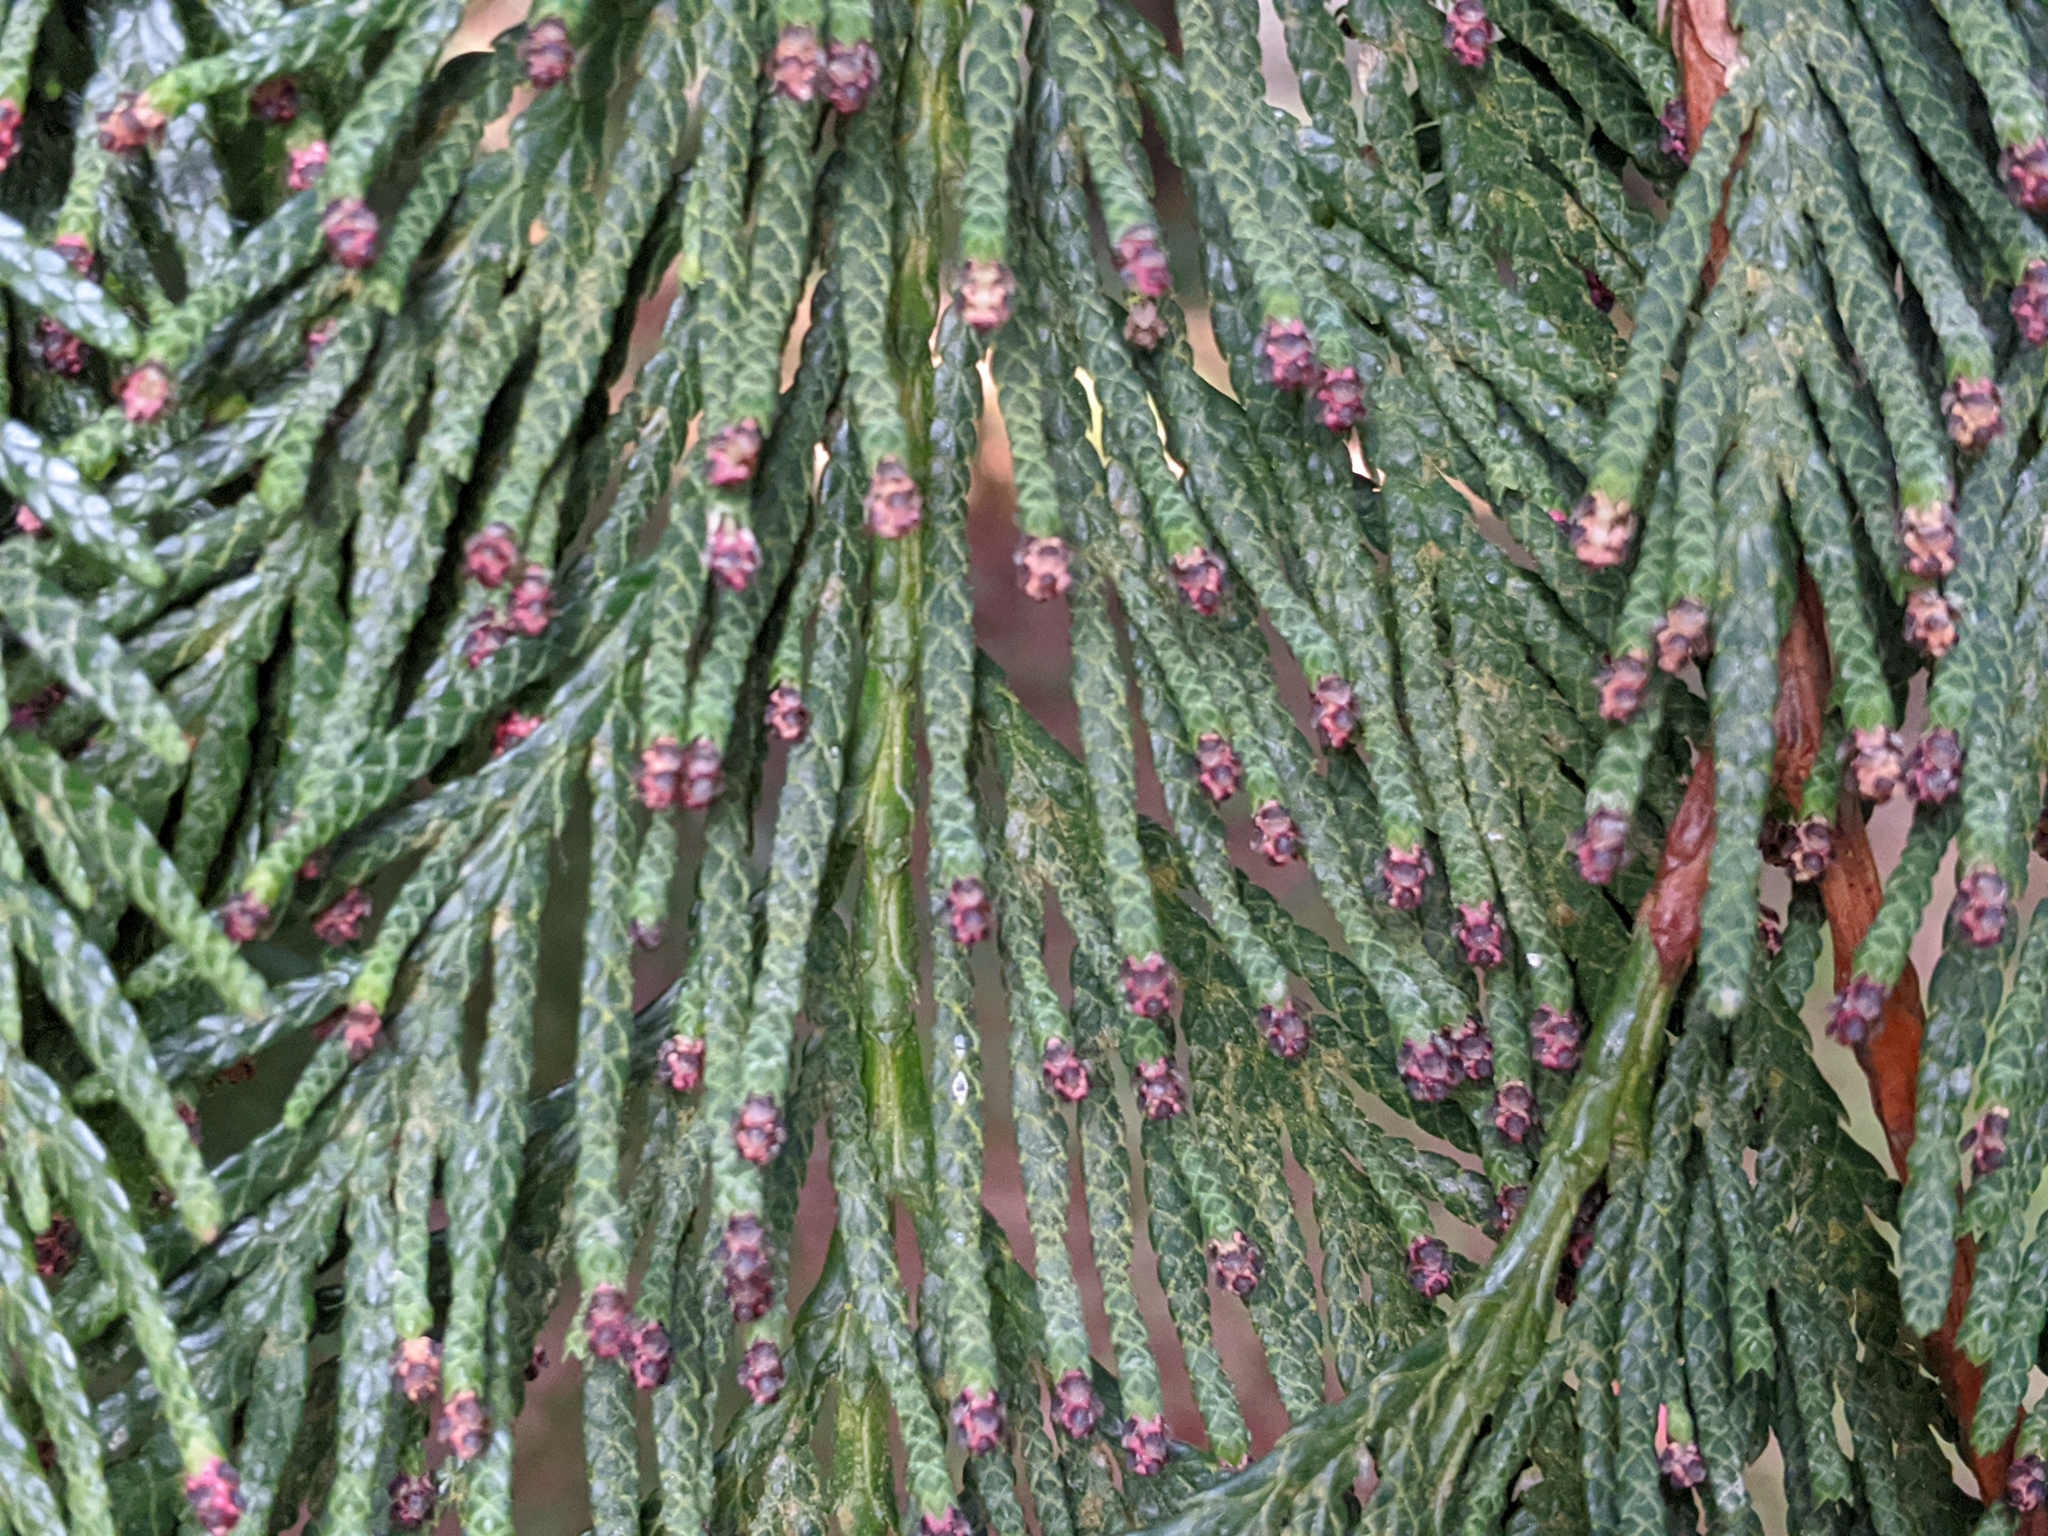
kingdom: Plantae
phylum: Tracheophyta
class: Pinopsida
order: Pinales
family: Cupressaceae
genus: Thuja
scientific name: Thuja plicata
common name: Western red-cedar
